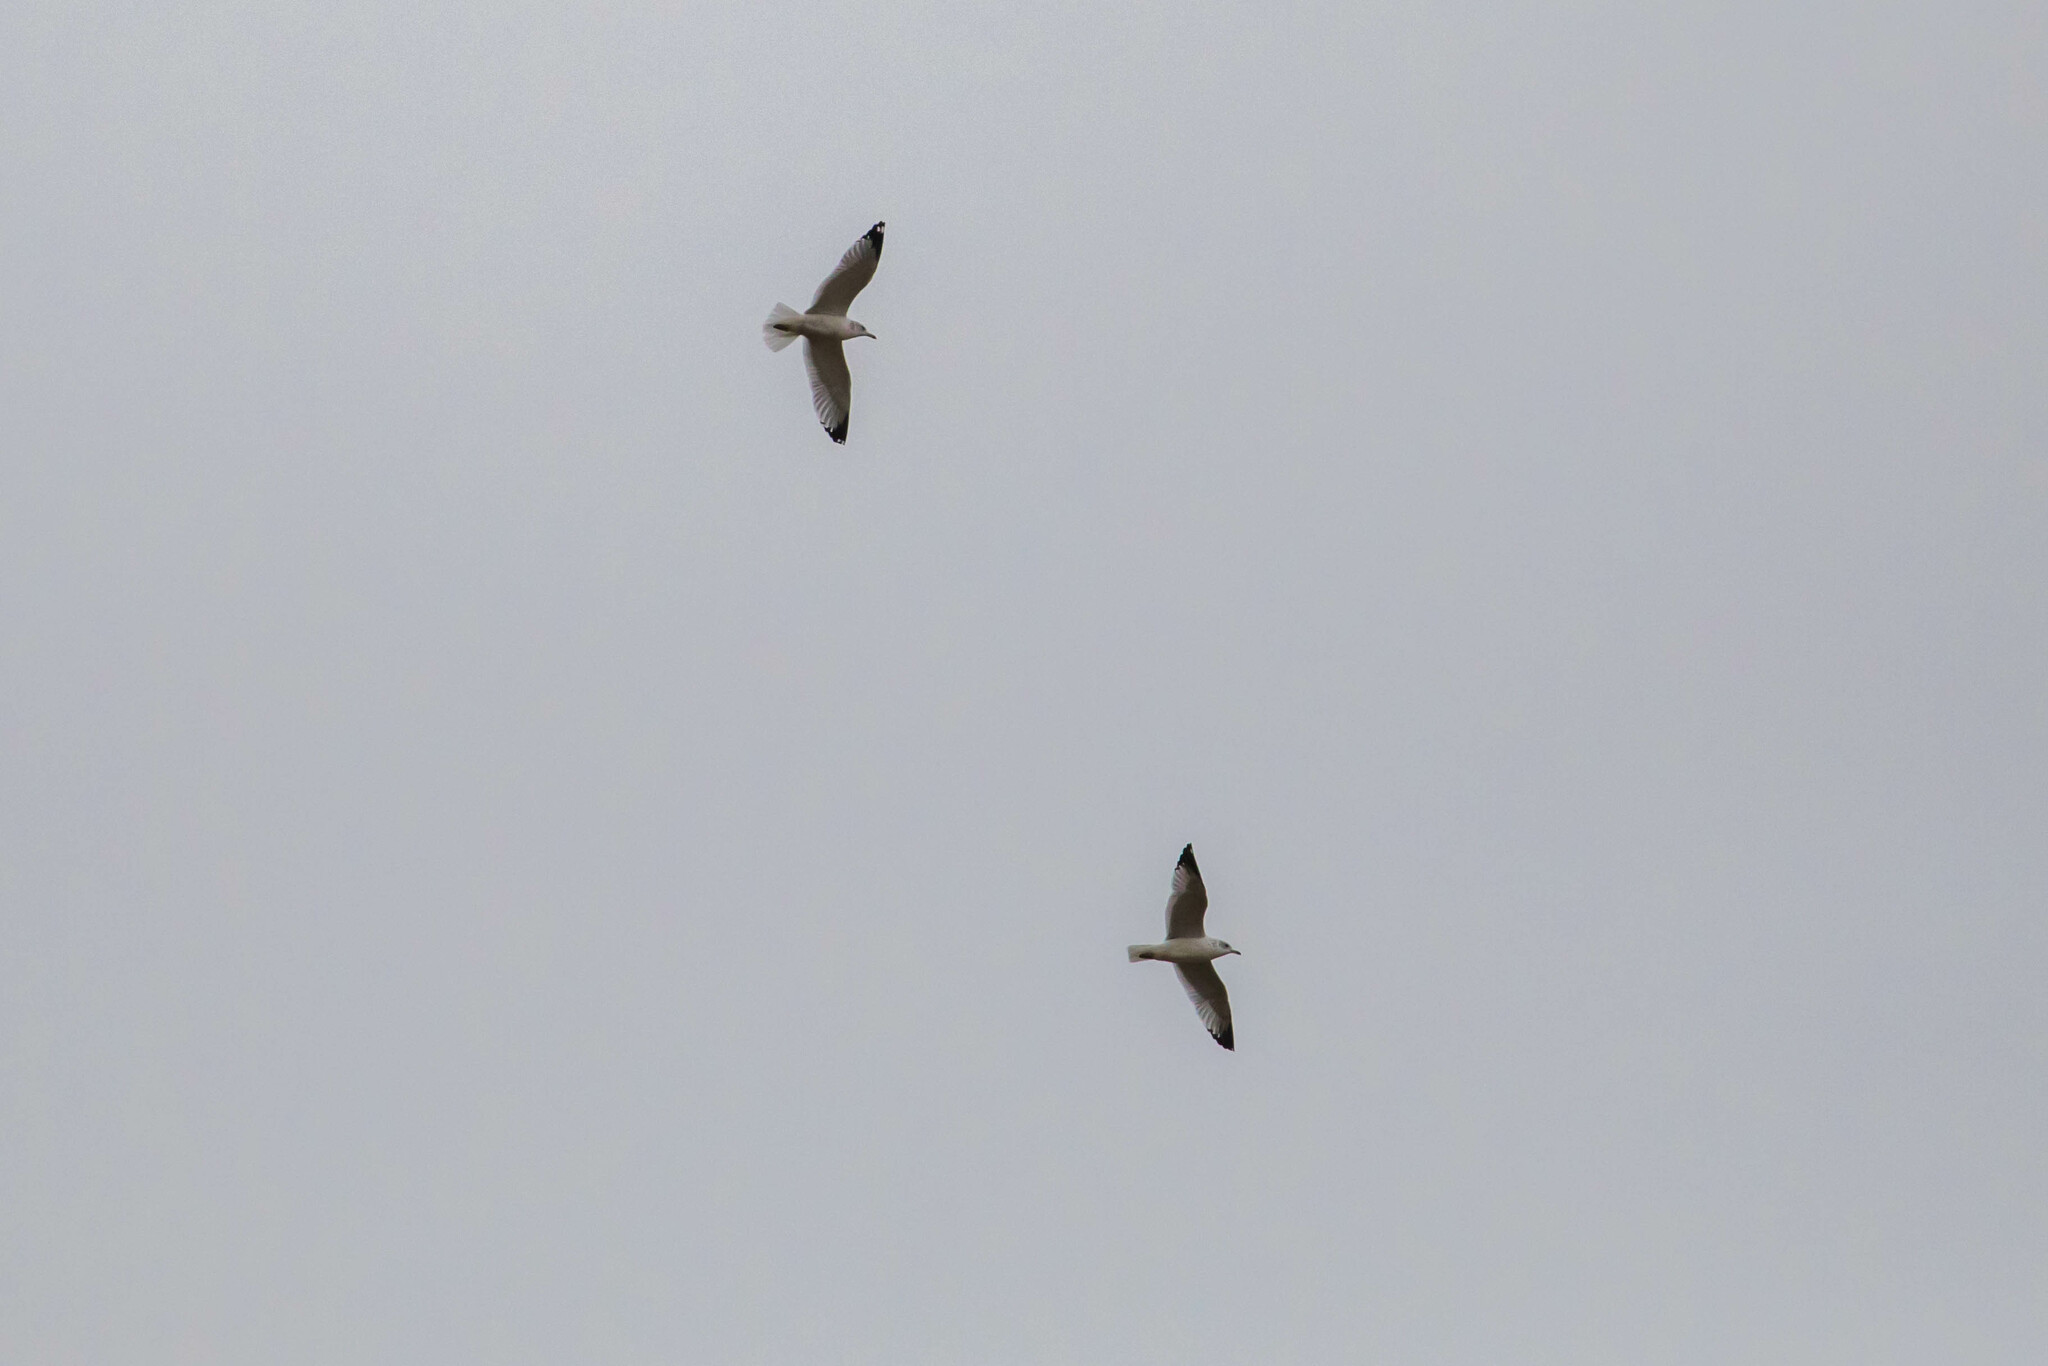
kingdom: Animalia
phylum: Chordata
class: Aves
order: Charadriiformes
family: Laridae
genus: Larus
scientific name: Larus delawarensis
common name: Ring-billed gull
